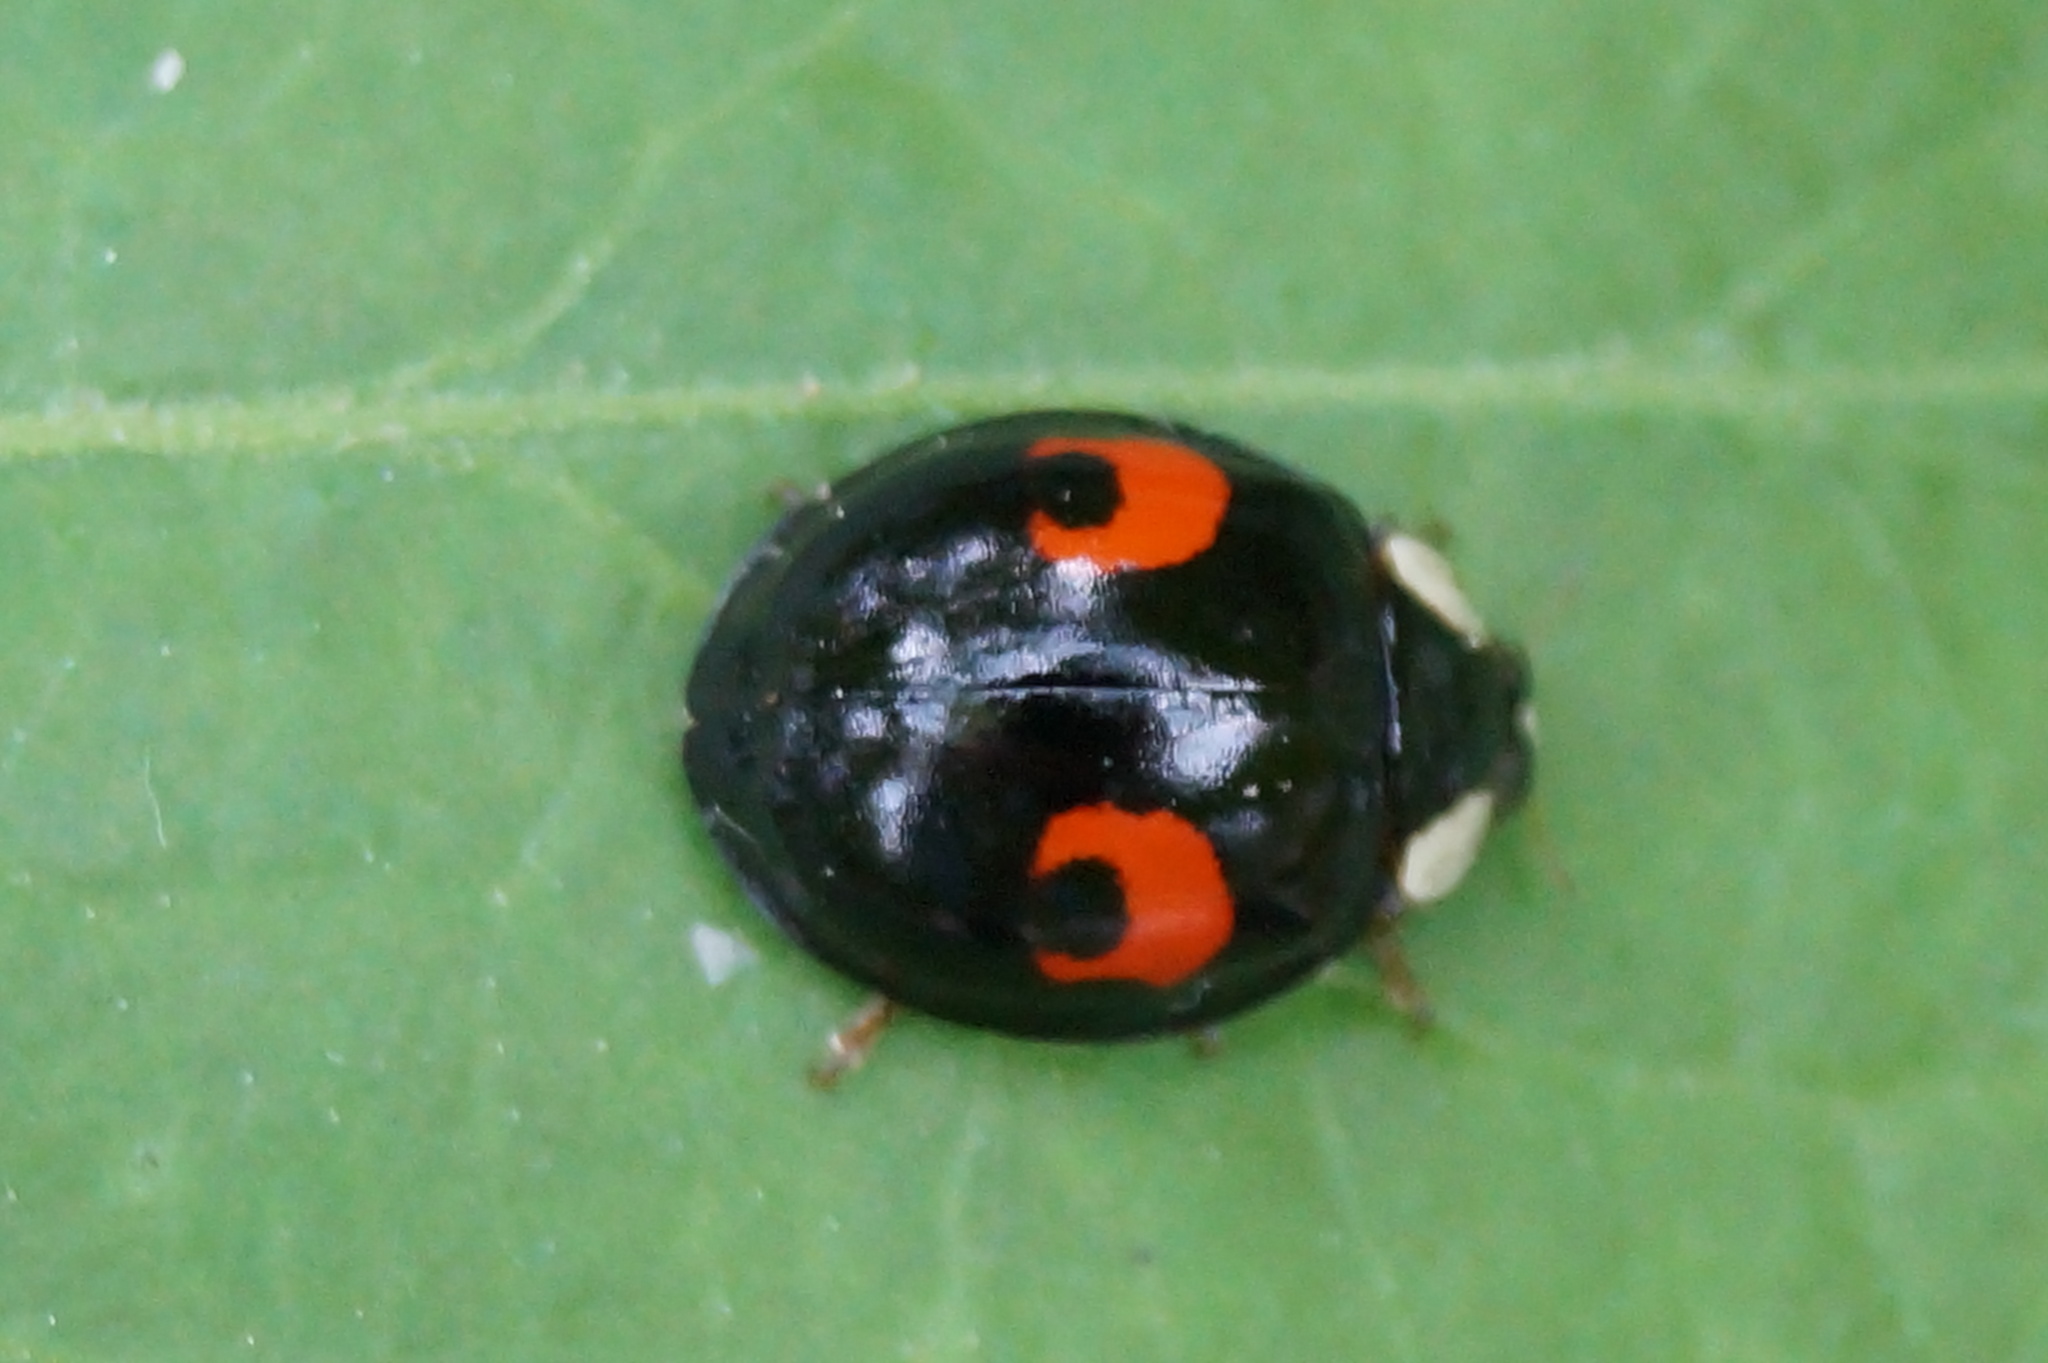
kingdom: Animalia
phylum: Arthropoda
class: Insecta
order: Coleoptera
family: Coccinellidae
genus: Harmonia
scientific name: Harmonia axyridis
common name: Harlequin ladybird
